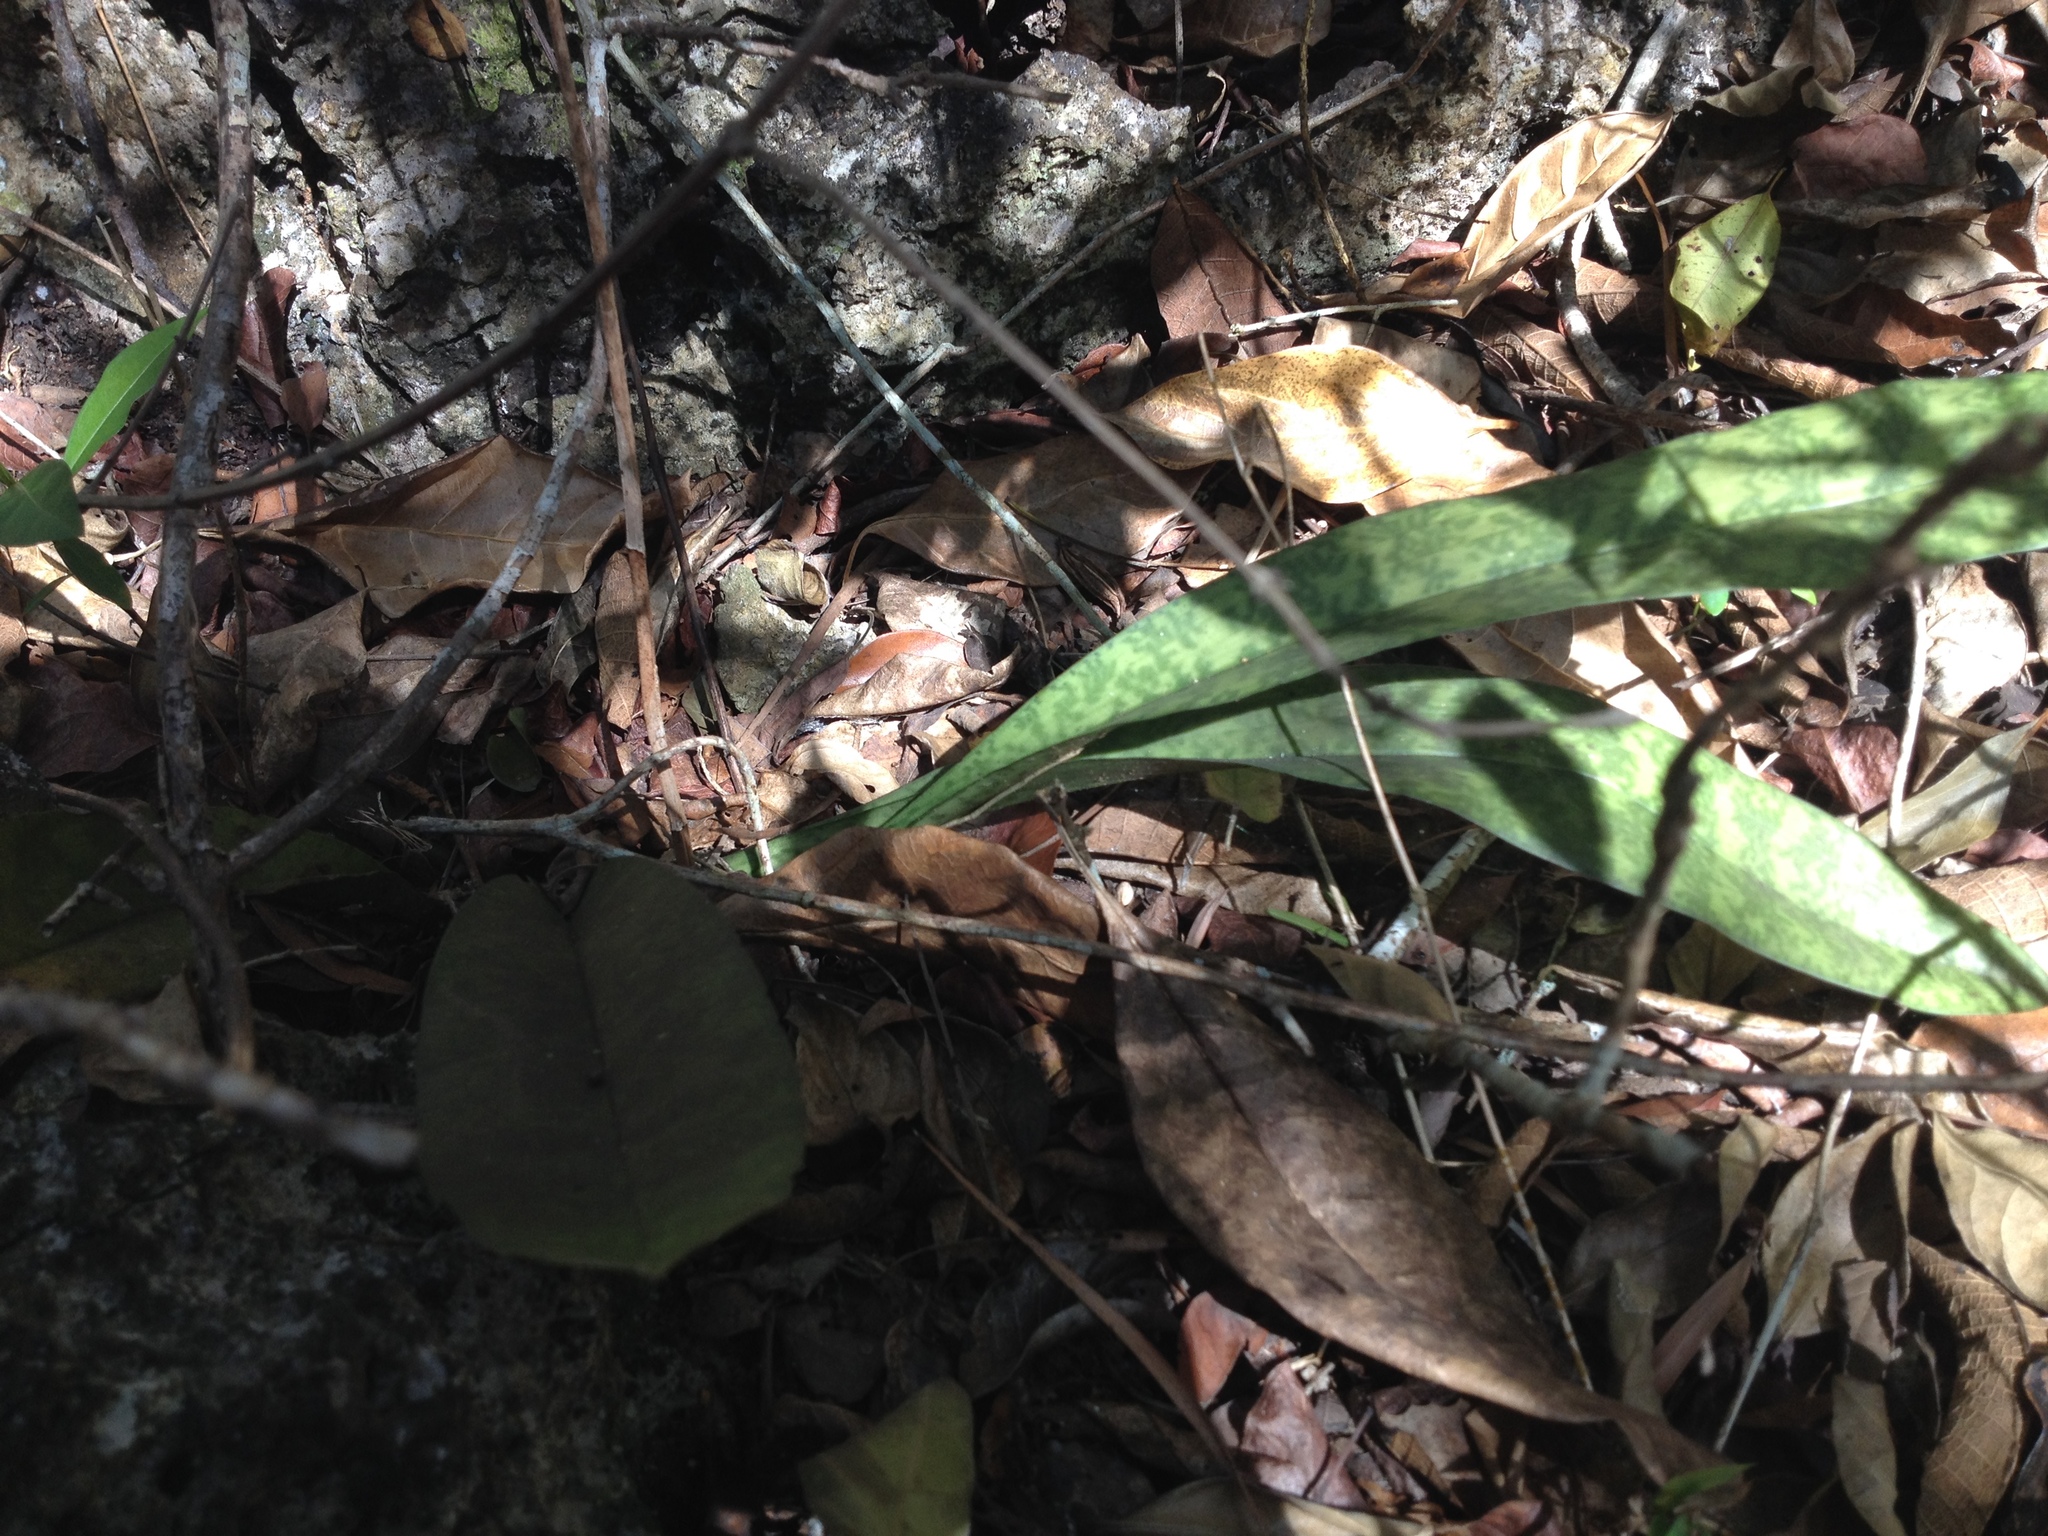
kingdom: Plantae
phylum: Tracheophyta
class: Liliopsida
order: Asparagales
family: Orchidaceae
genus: Eulophia
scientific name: Eulophia maculata
